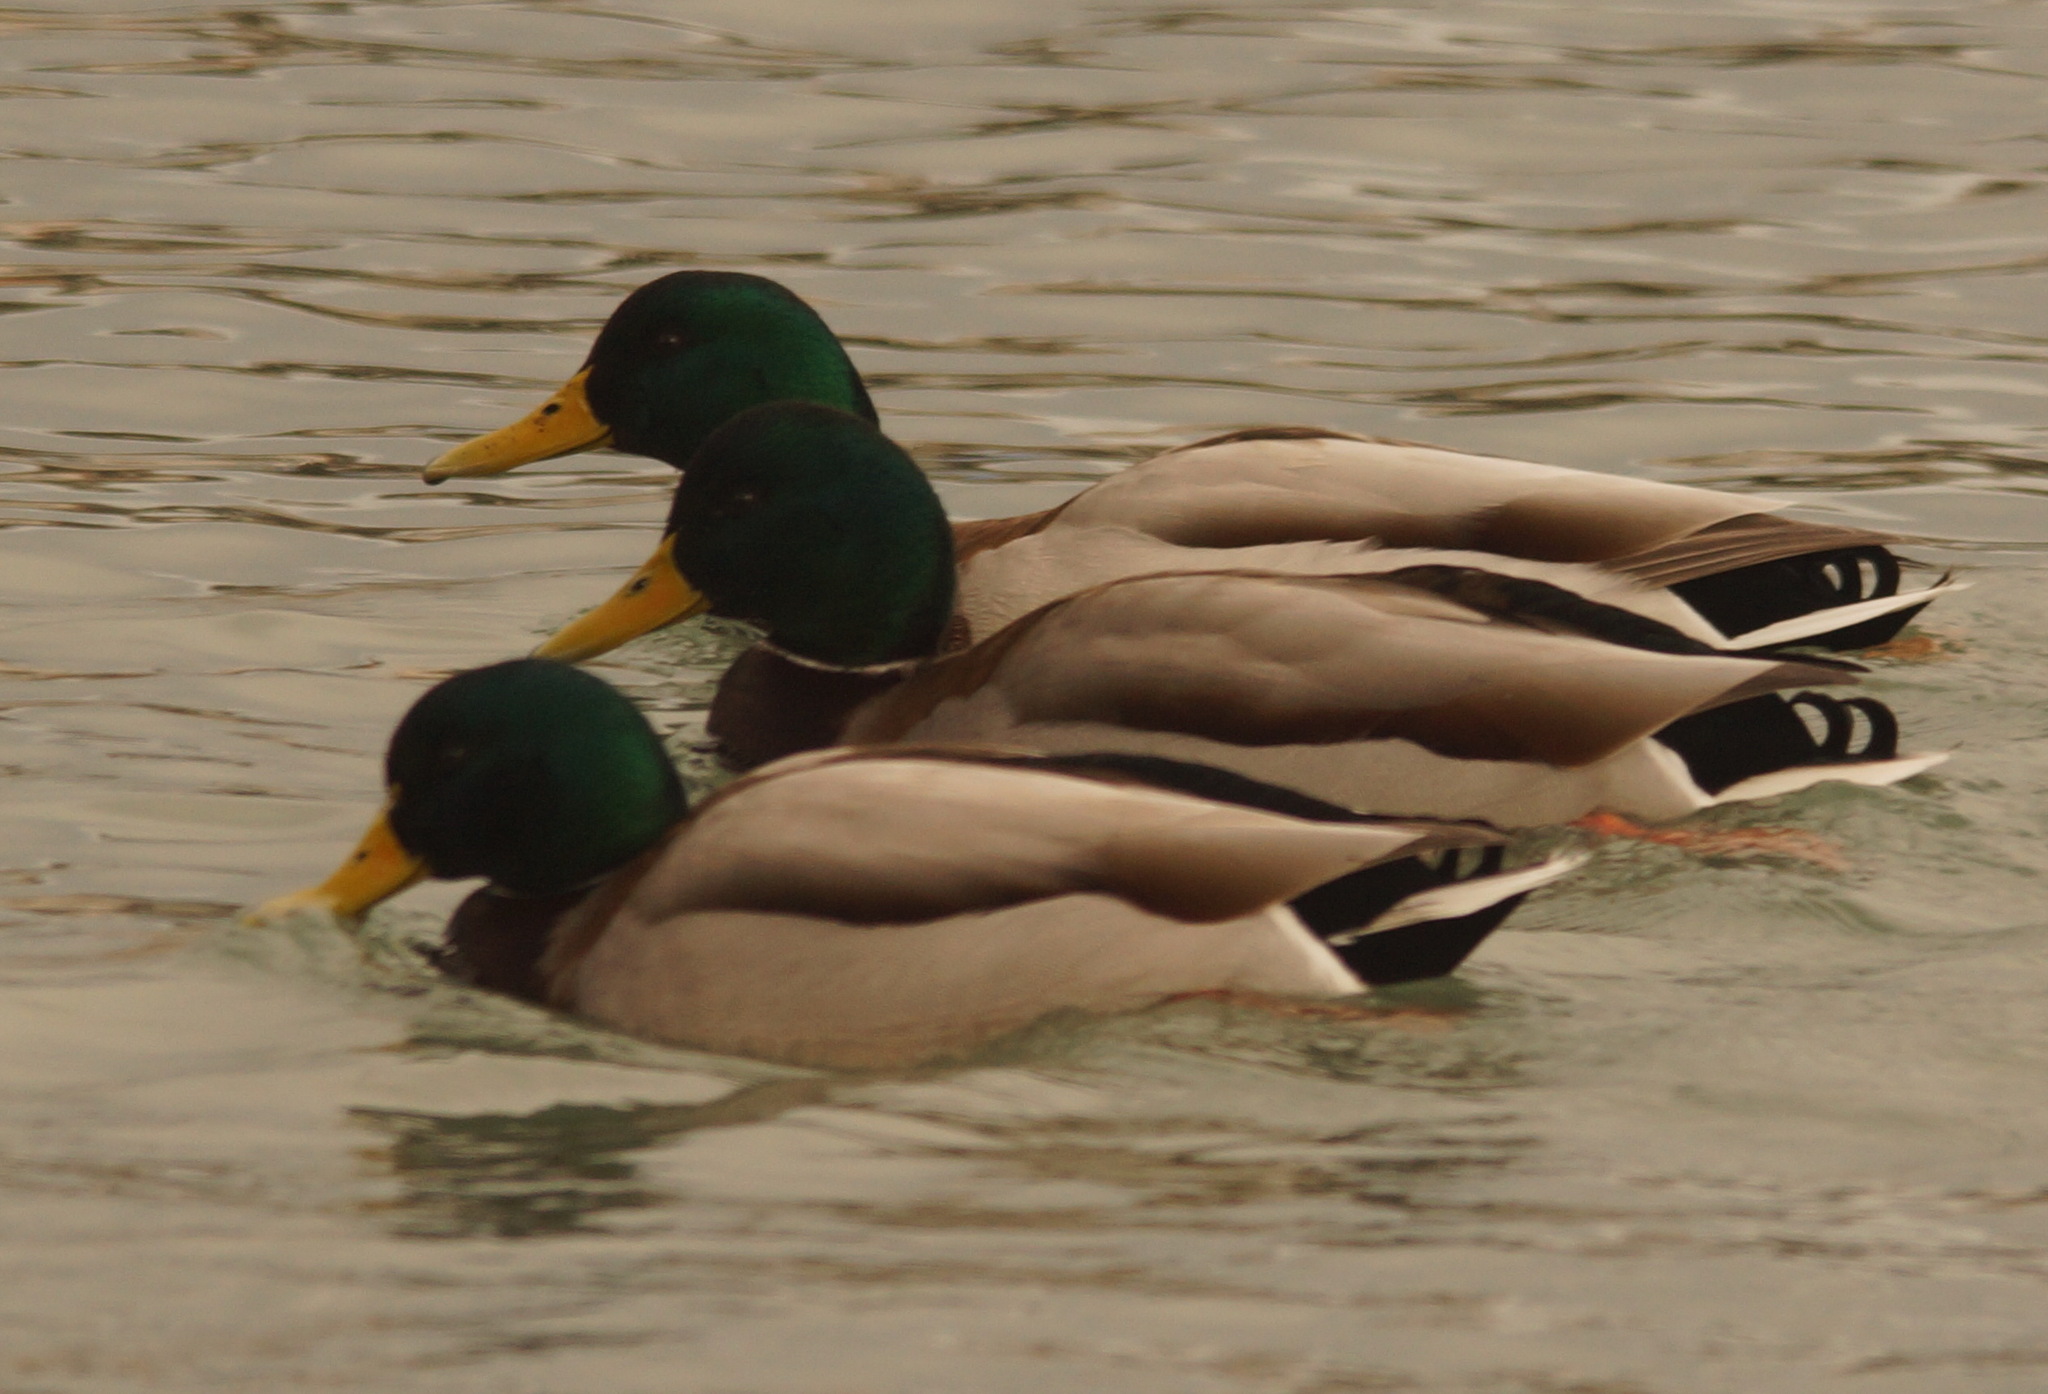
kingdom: Animalia
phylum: Chordata
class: Aves
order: Anseriformes
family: Anatidae
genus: Anas
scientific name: Anas platyrhynchos
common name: Mallard
